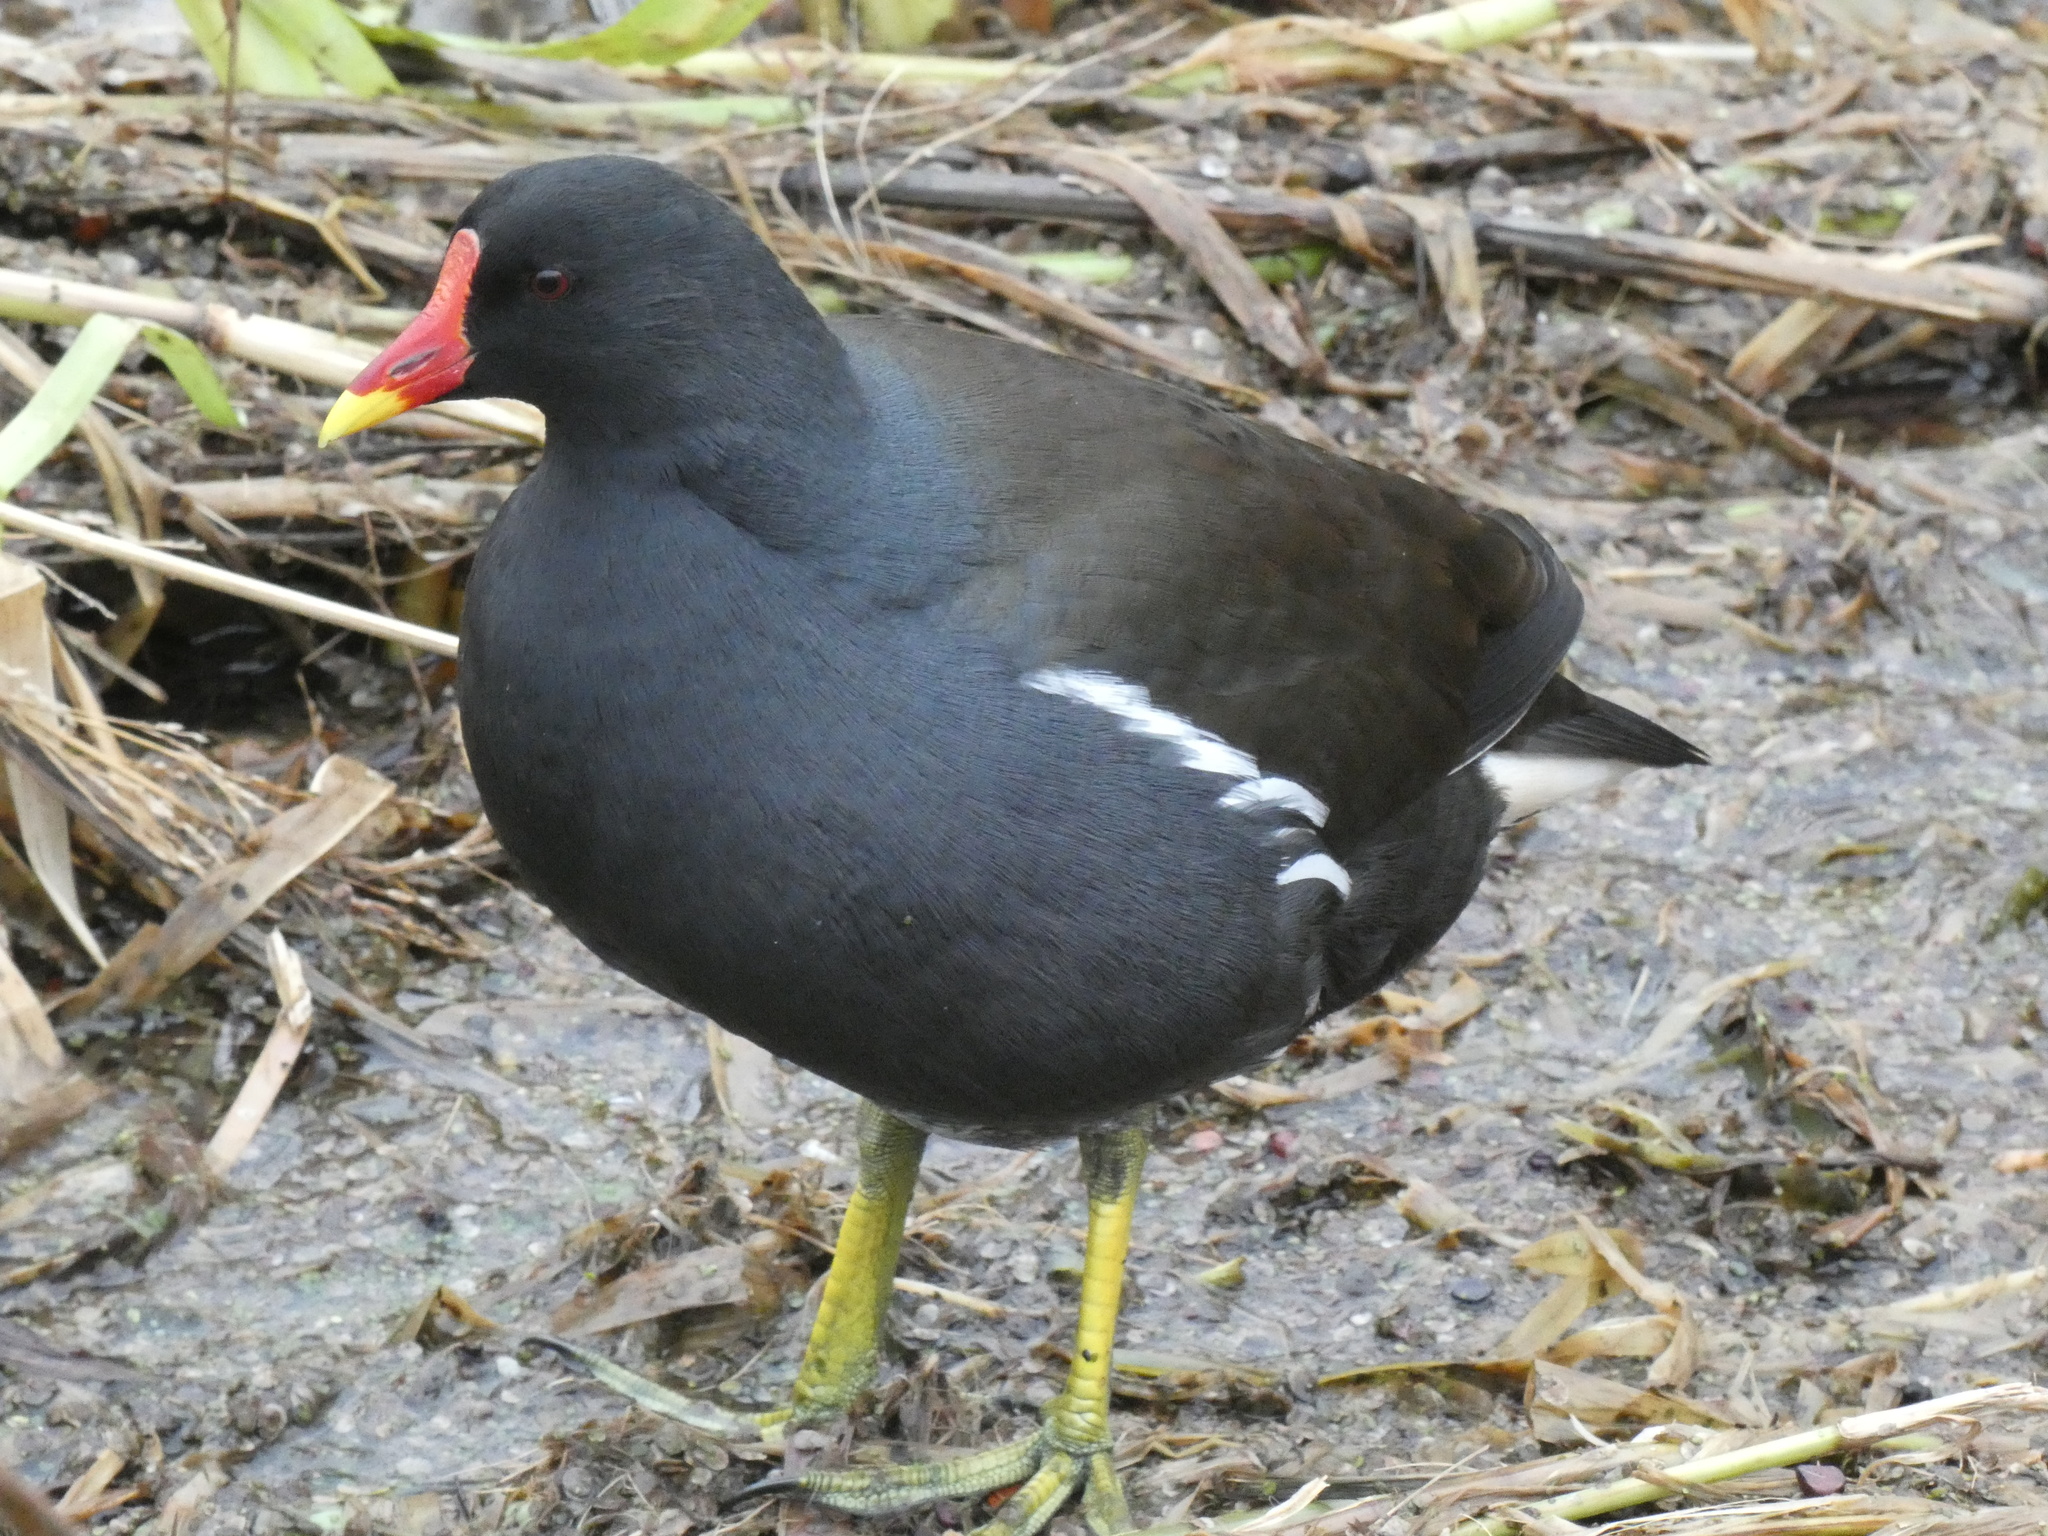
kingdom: Animalia
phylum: Chordata
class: Aves
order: Gruiformes
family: Rallidae
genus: Gallinula
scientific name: Gallinula chloropus
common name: Common moorhen
